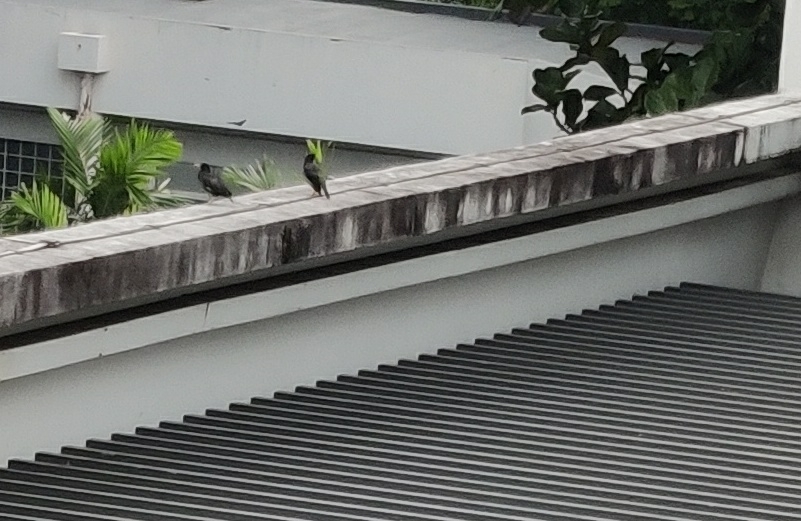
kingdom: Animalia
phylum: Chordata
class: Aves
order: Passeriformes
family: Sturnidae
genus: Acridotheres
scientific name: Acridotheres javanicus
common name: Javan myna
